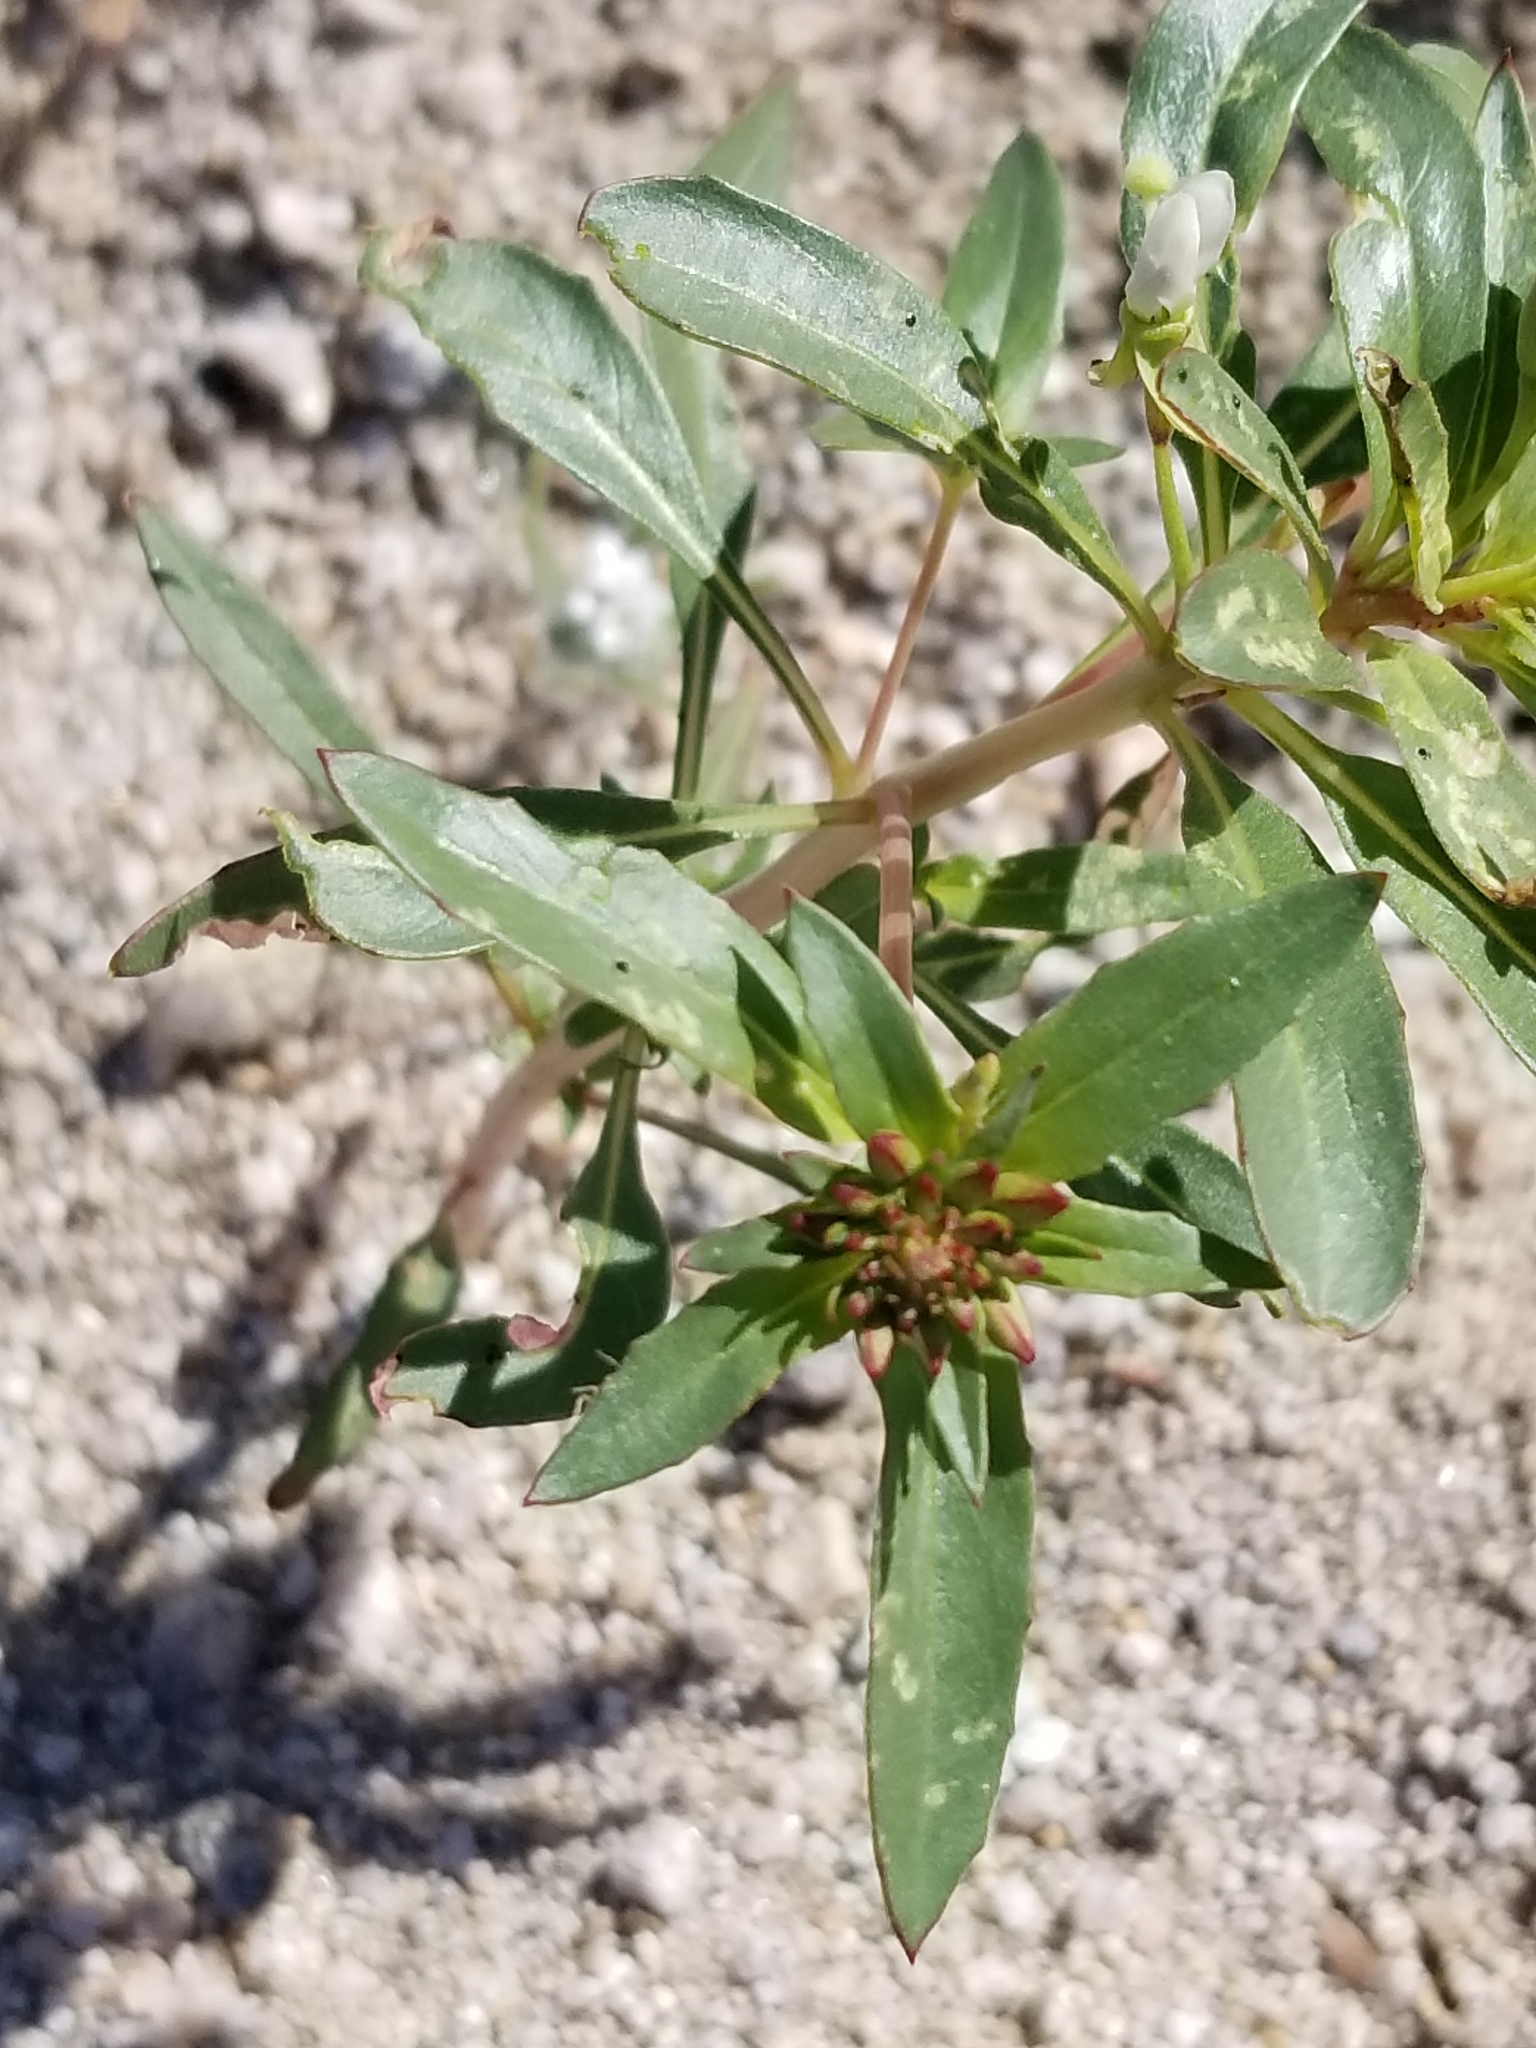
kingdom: Plantae
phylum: Tracheophyta
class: Magnoliopsida
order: Myrtales
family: Onagraceae
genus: Eremothera
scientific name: Eremothera boothii
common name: Booth's evening primrose
